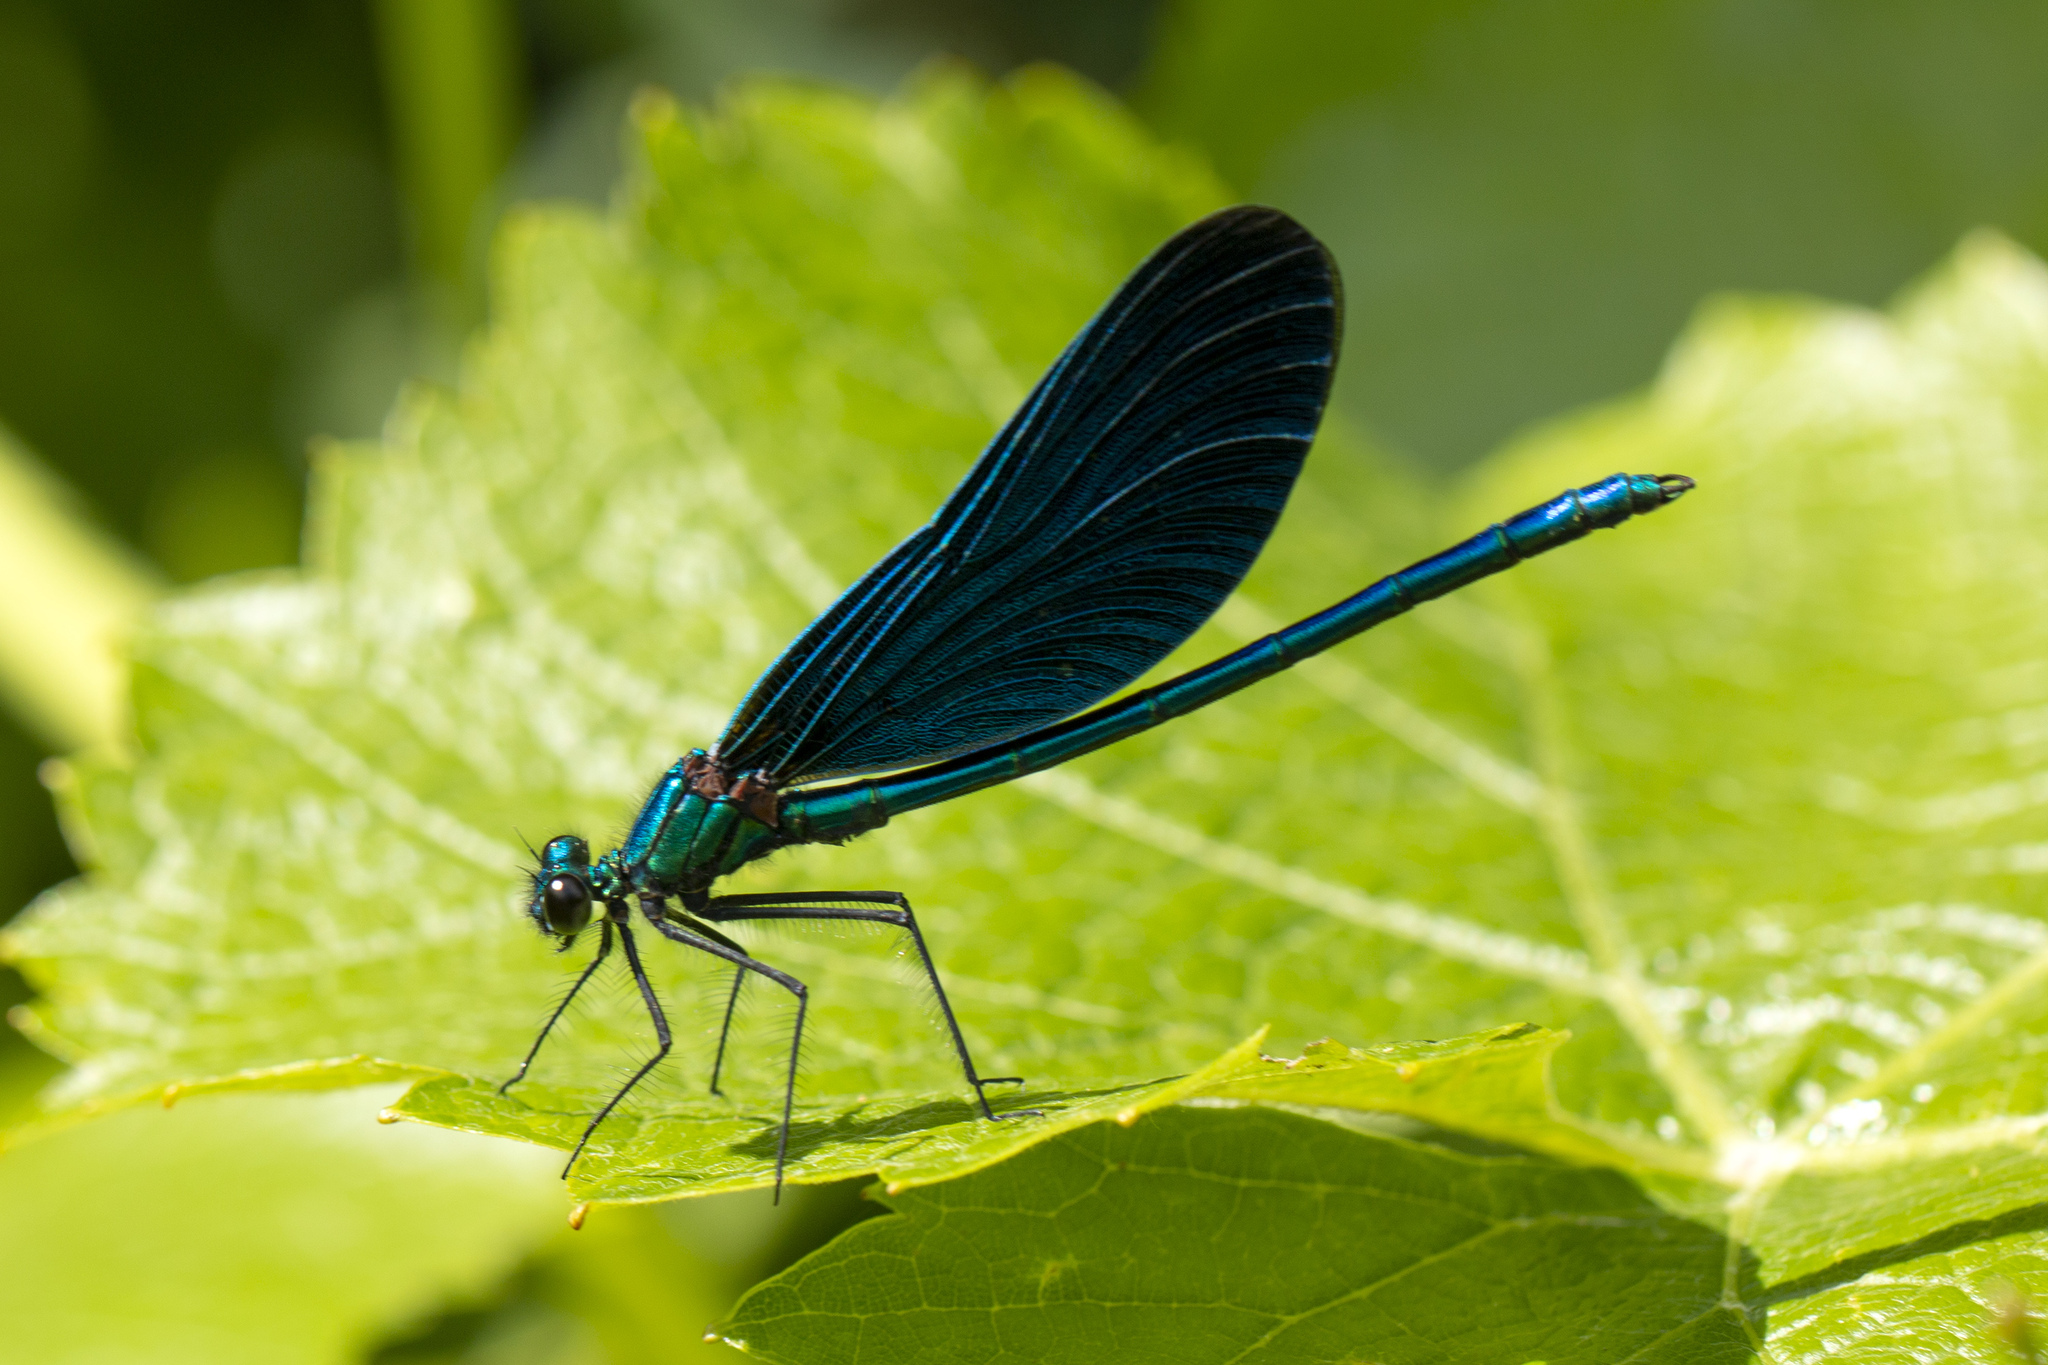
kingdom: Animalia
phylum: Arthropoda
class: Insecta
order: Odonata
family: Calopterygidae
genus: Calopteryx
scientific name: Calopteryx virgo
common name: Beautiful demoiselle
